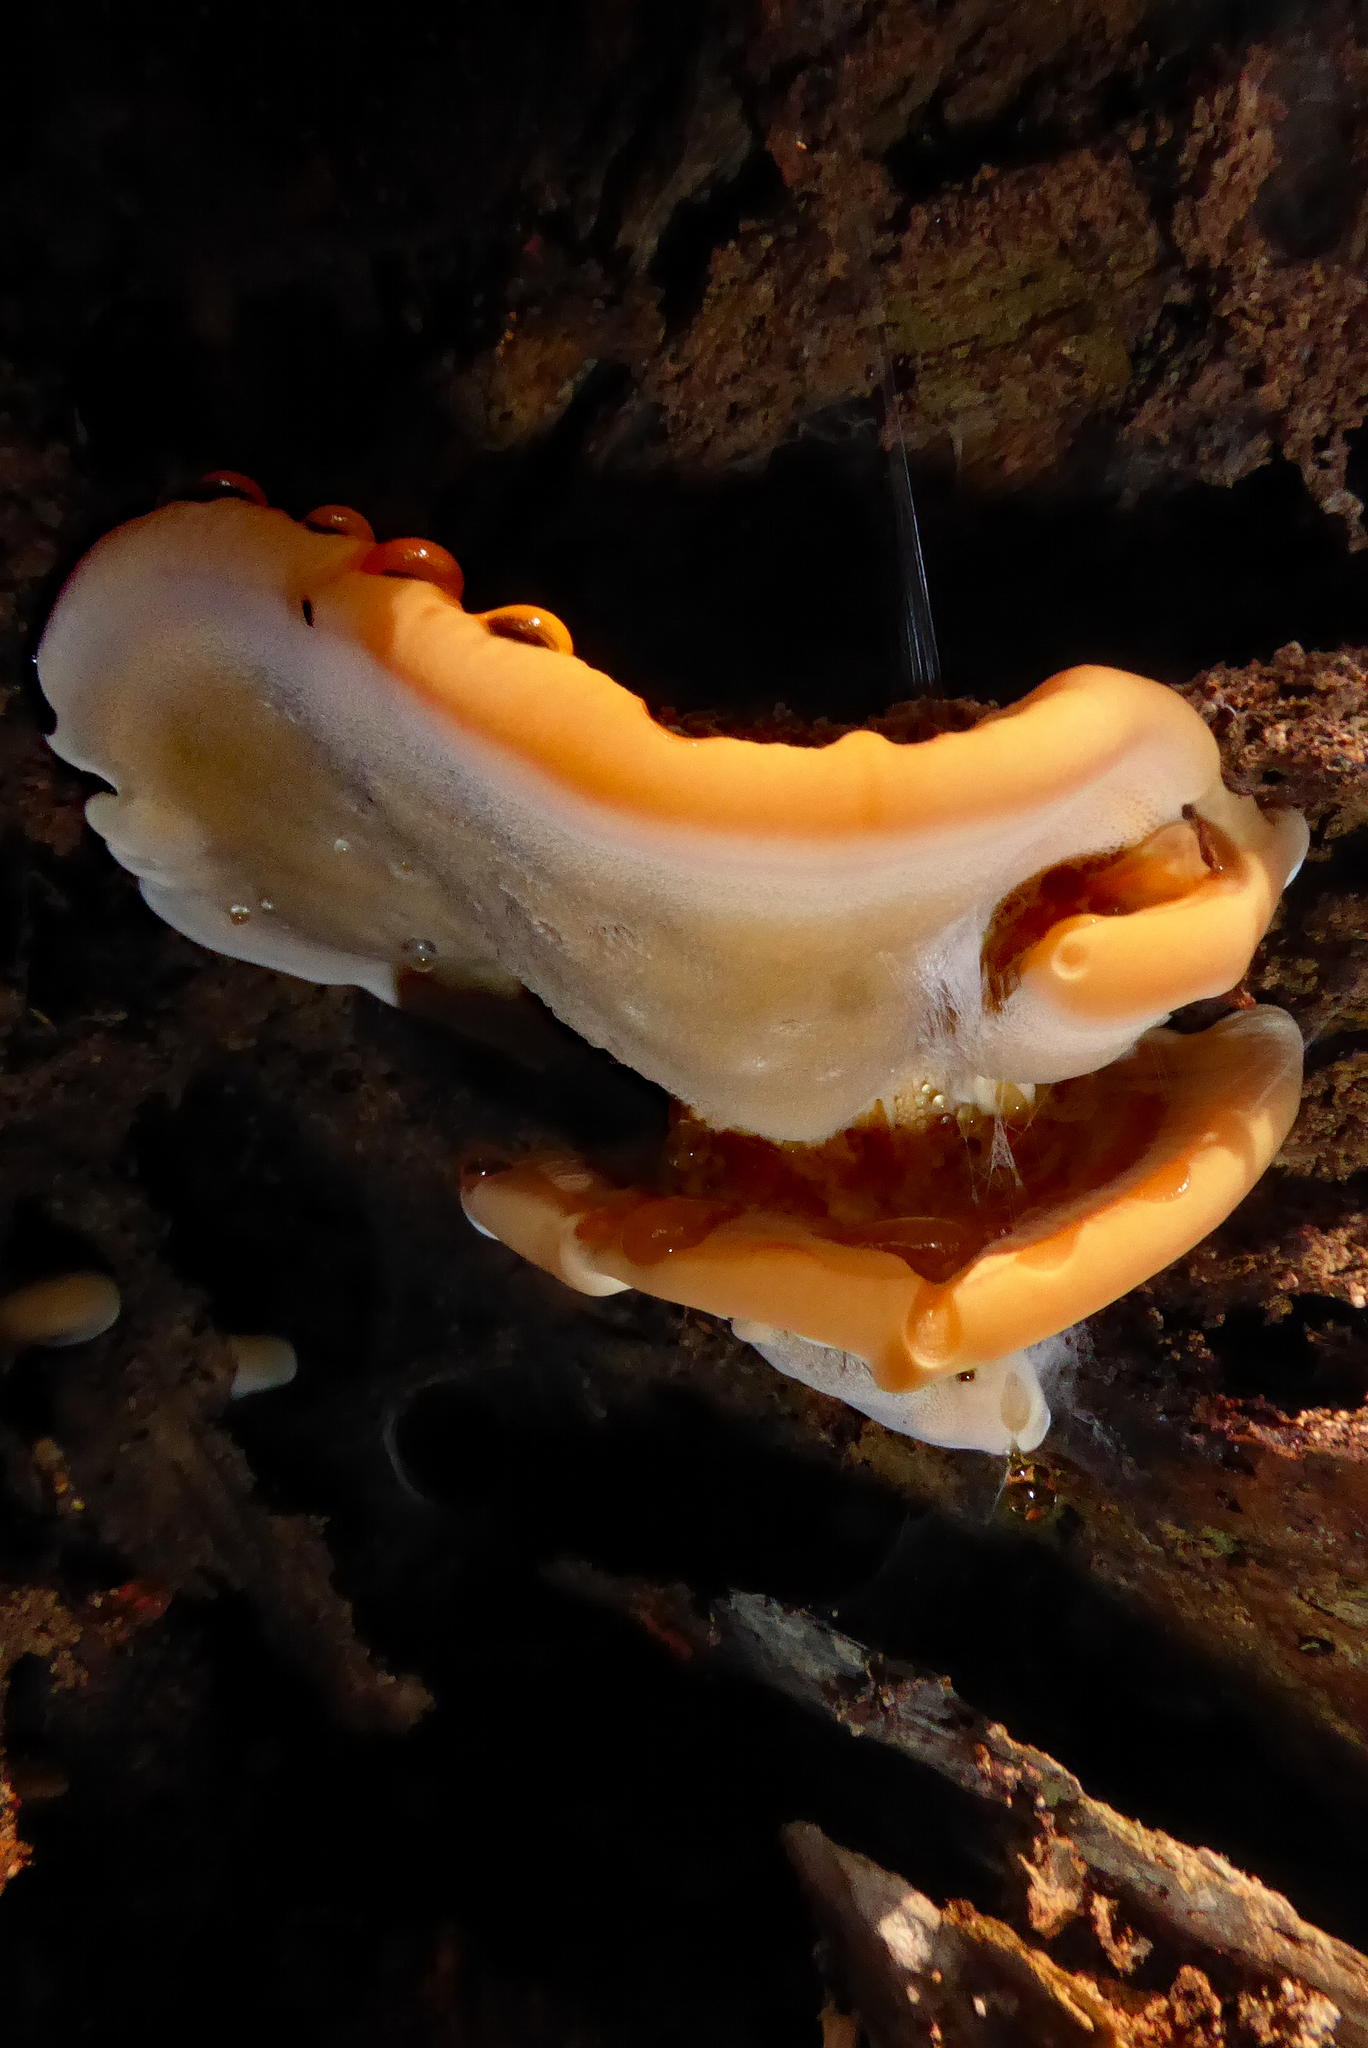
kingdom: Fungi
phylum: Basidiomycota
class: Agaricomycetes
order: Polyporales
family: Meripilaceae
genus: Rigidoporus
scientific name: Rigidoporus laetus
